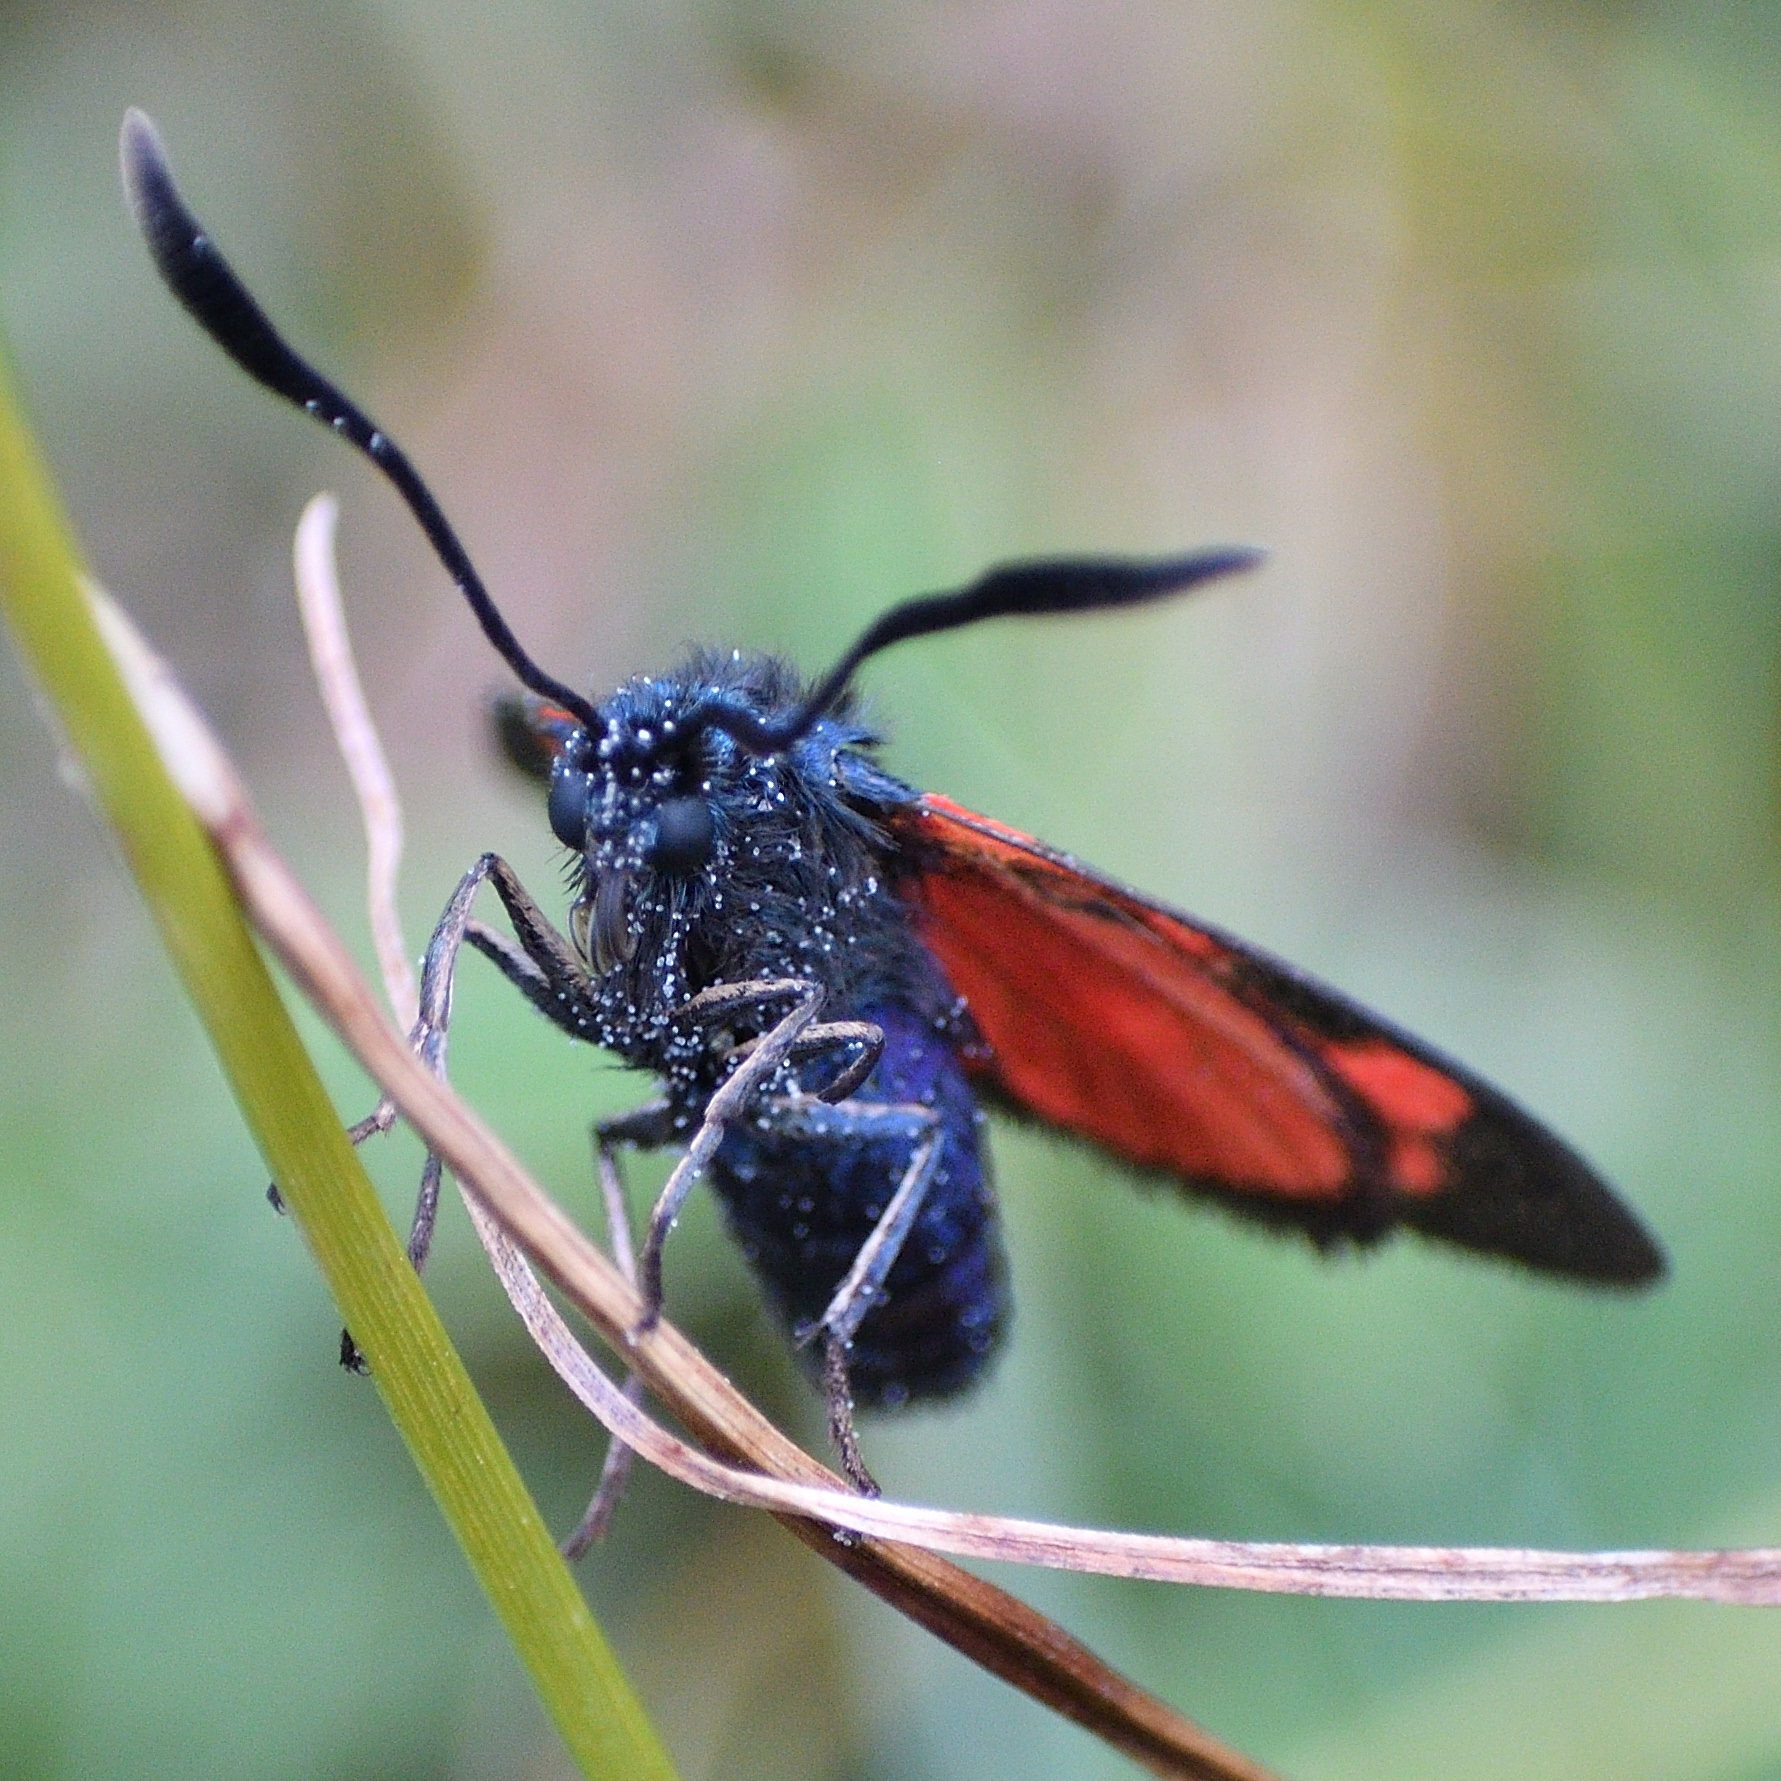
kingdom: Animalia
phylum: Arthropoda
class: Insecta
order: Lepidoptera
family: Zygaenidae
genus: Zygaena
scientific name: Zygaena transalpina
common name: Southern six spot burnet
